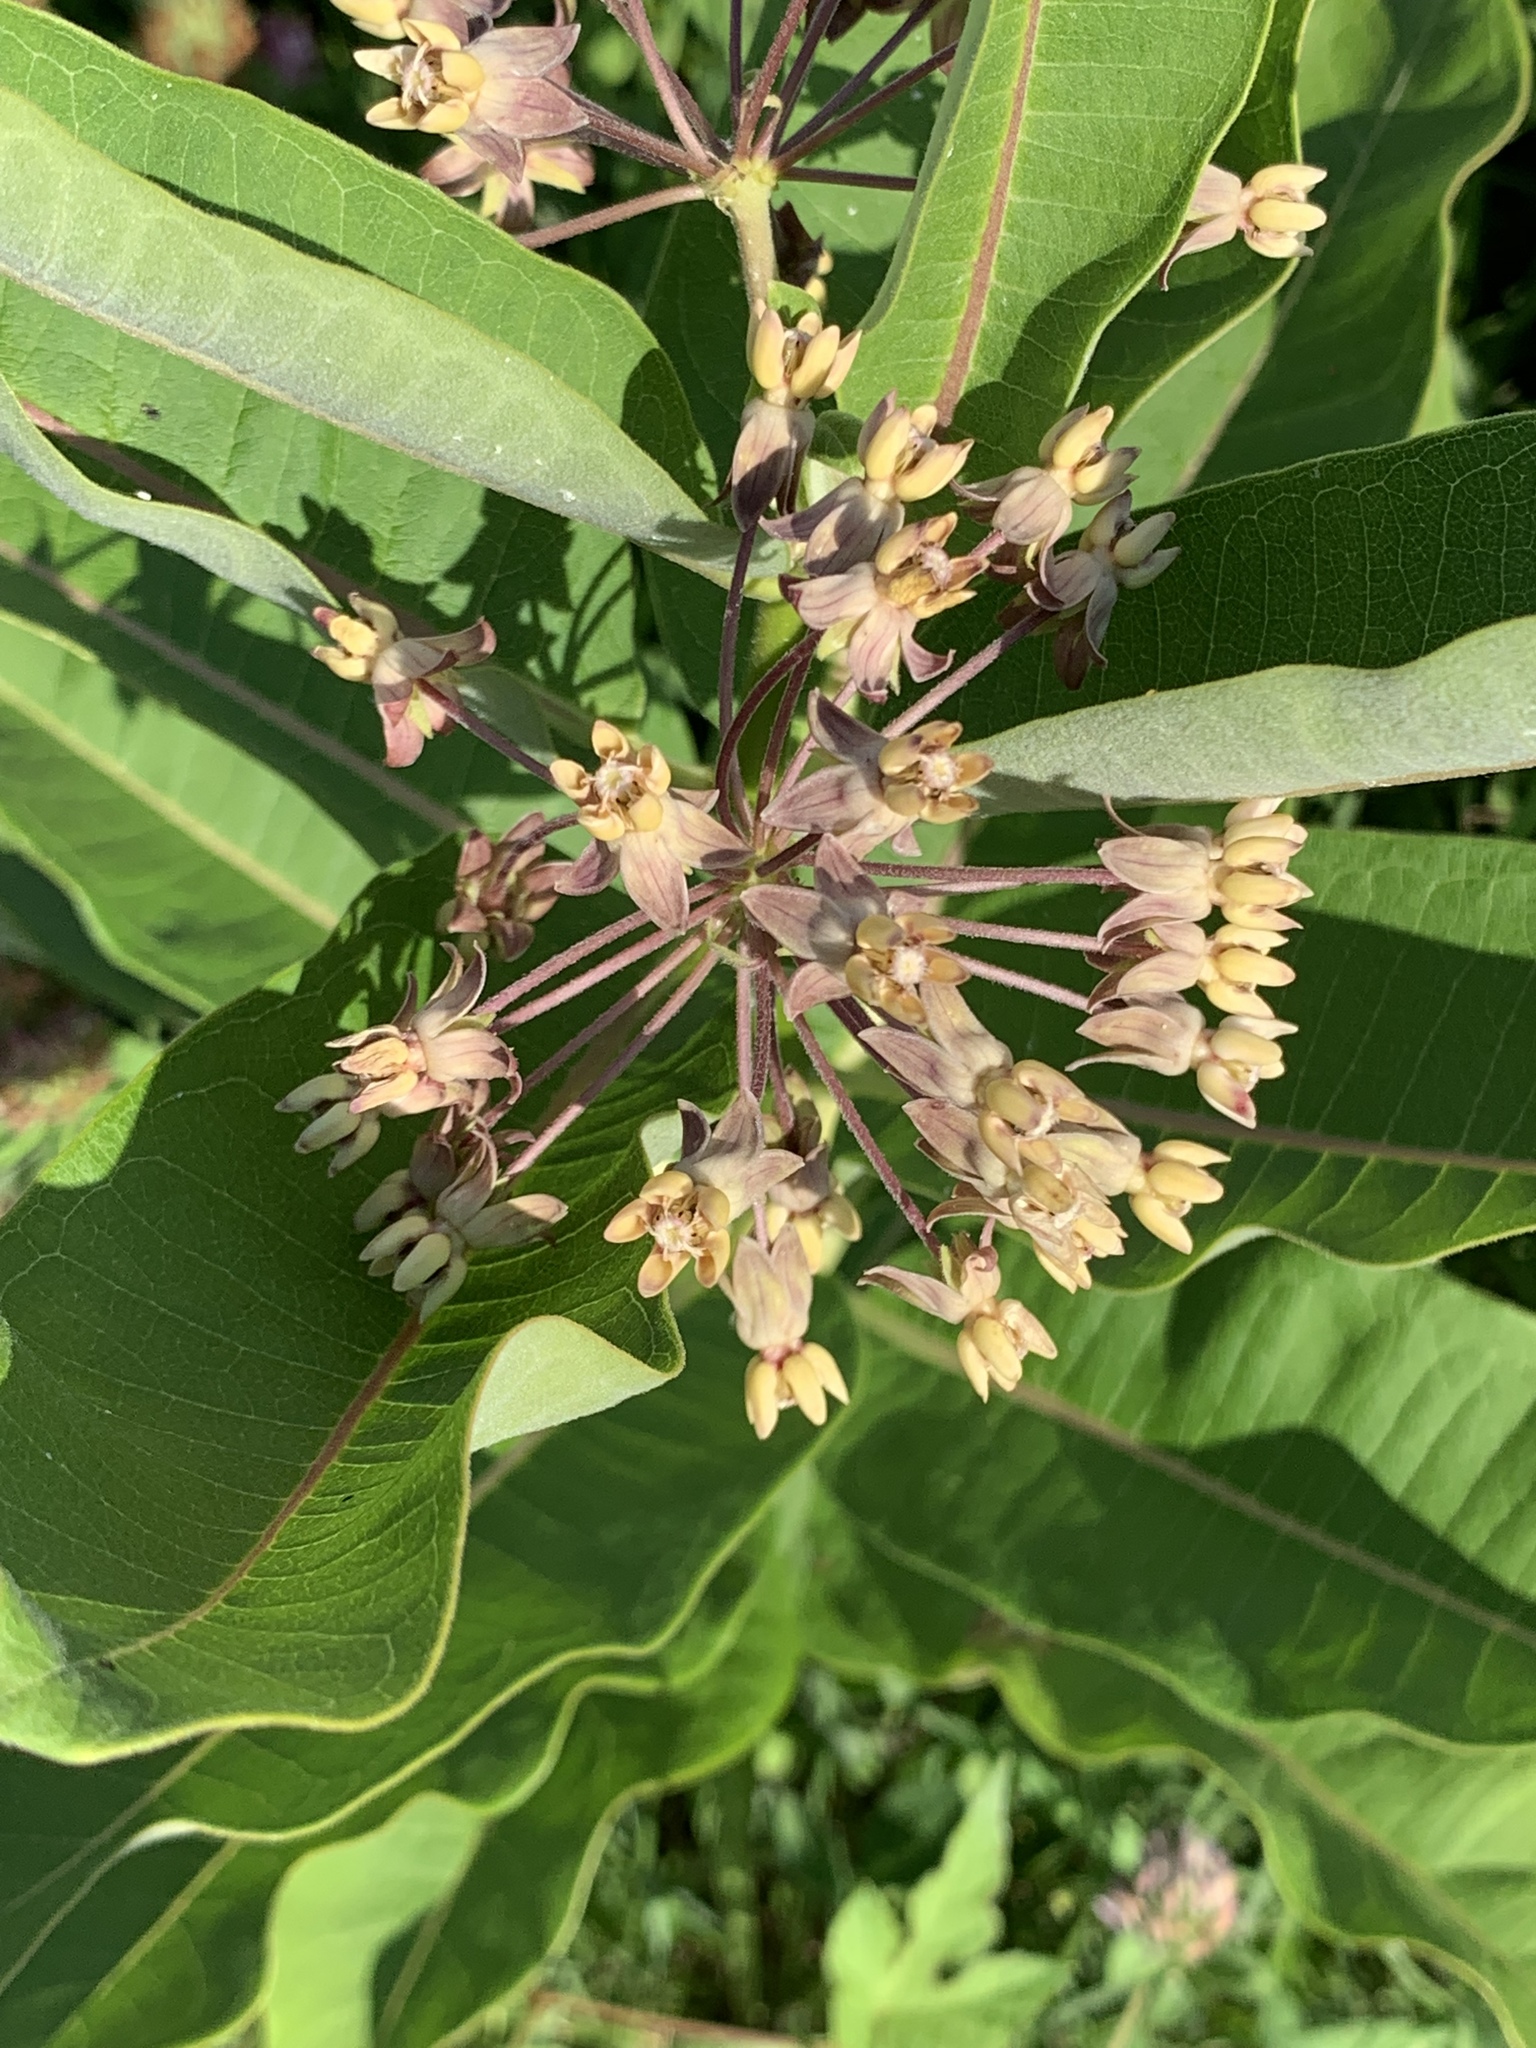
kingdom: Plantae
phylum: Tracheophyta
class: Magnoliopsida
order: Gentianales
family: Apocynaceae
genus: Asclepias
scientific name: Asclepias syriaca
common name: Common milkweed
